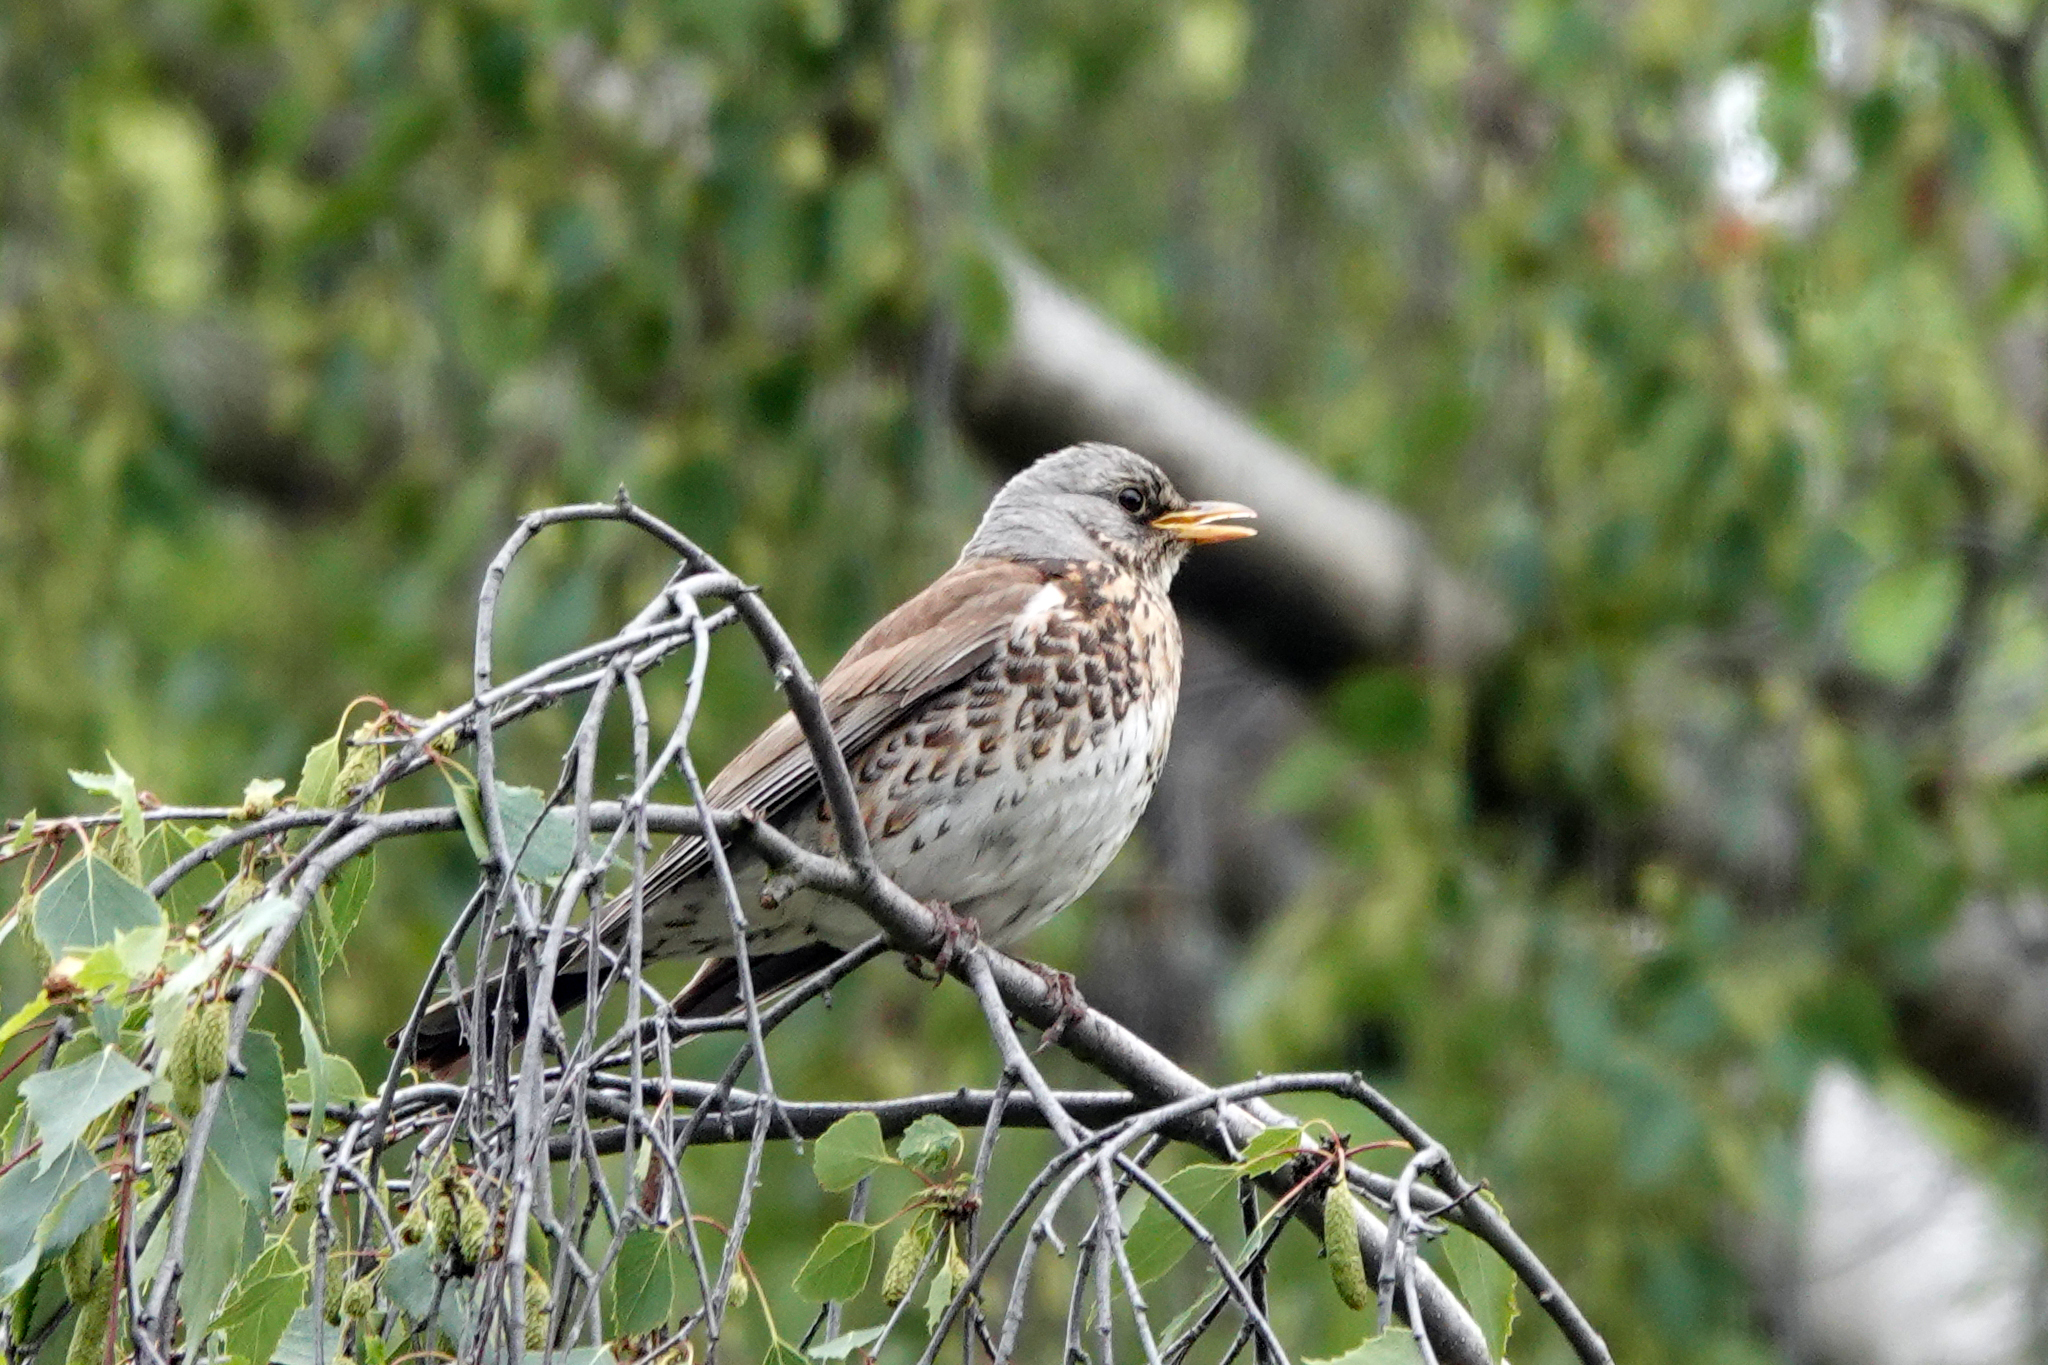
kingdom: Animalia
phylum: Chordata
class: Aves
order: Passeriformes
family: Turdidae
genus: Turdus
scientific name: Turdus pilaris
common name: Fieldfare
